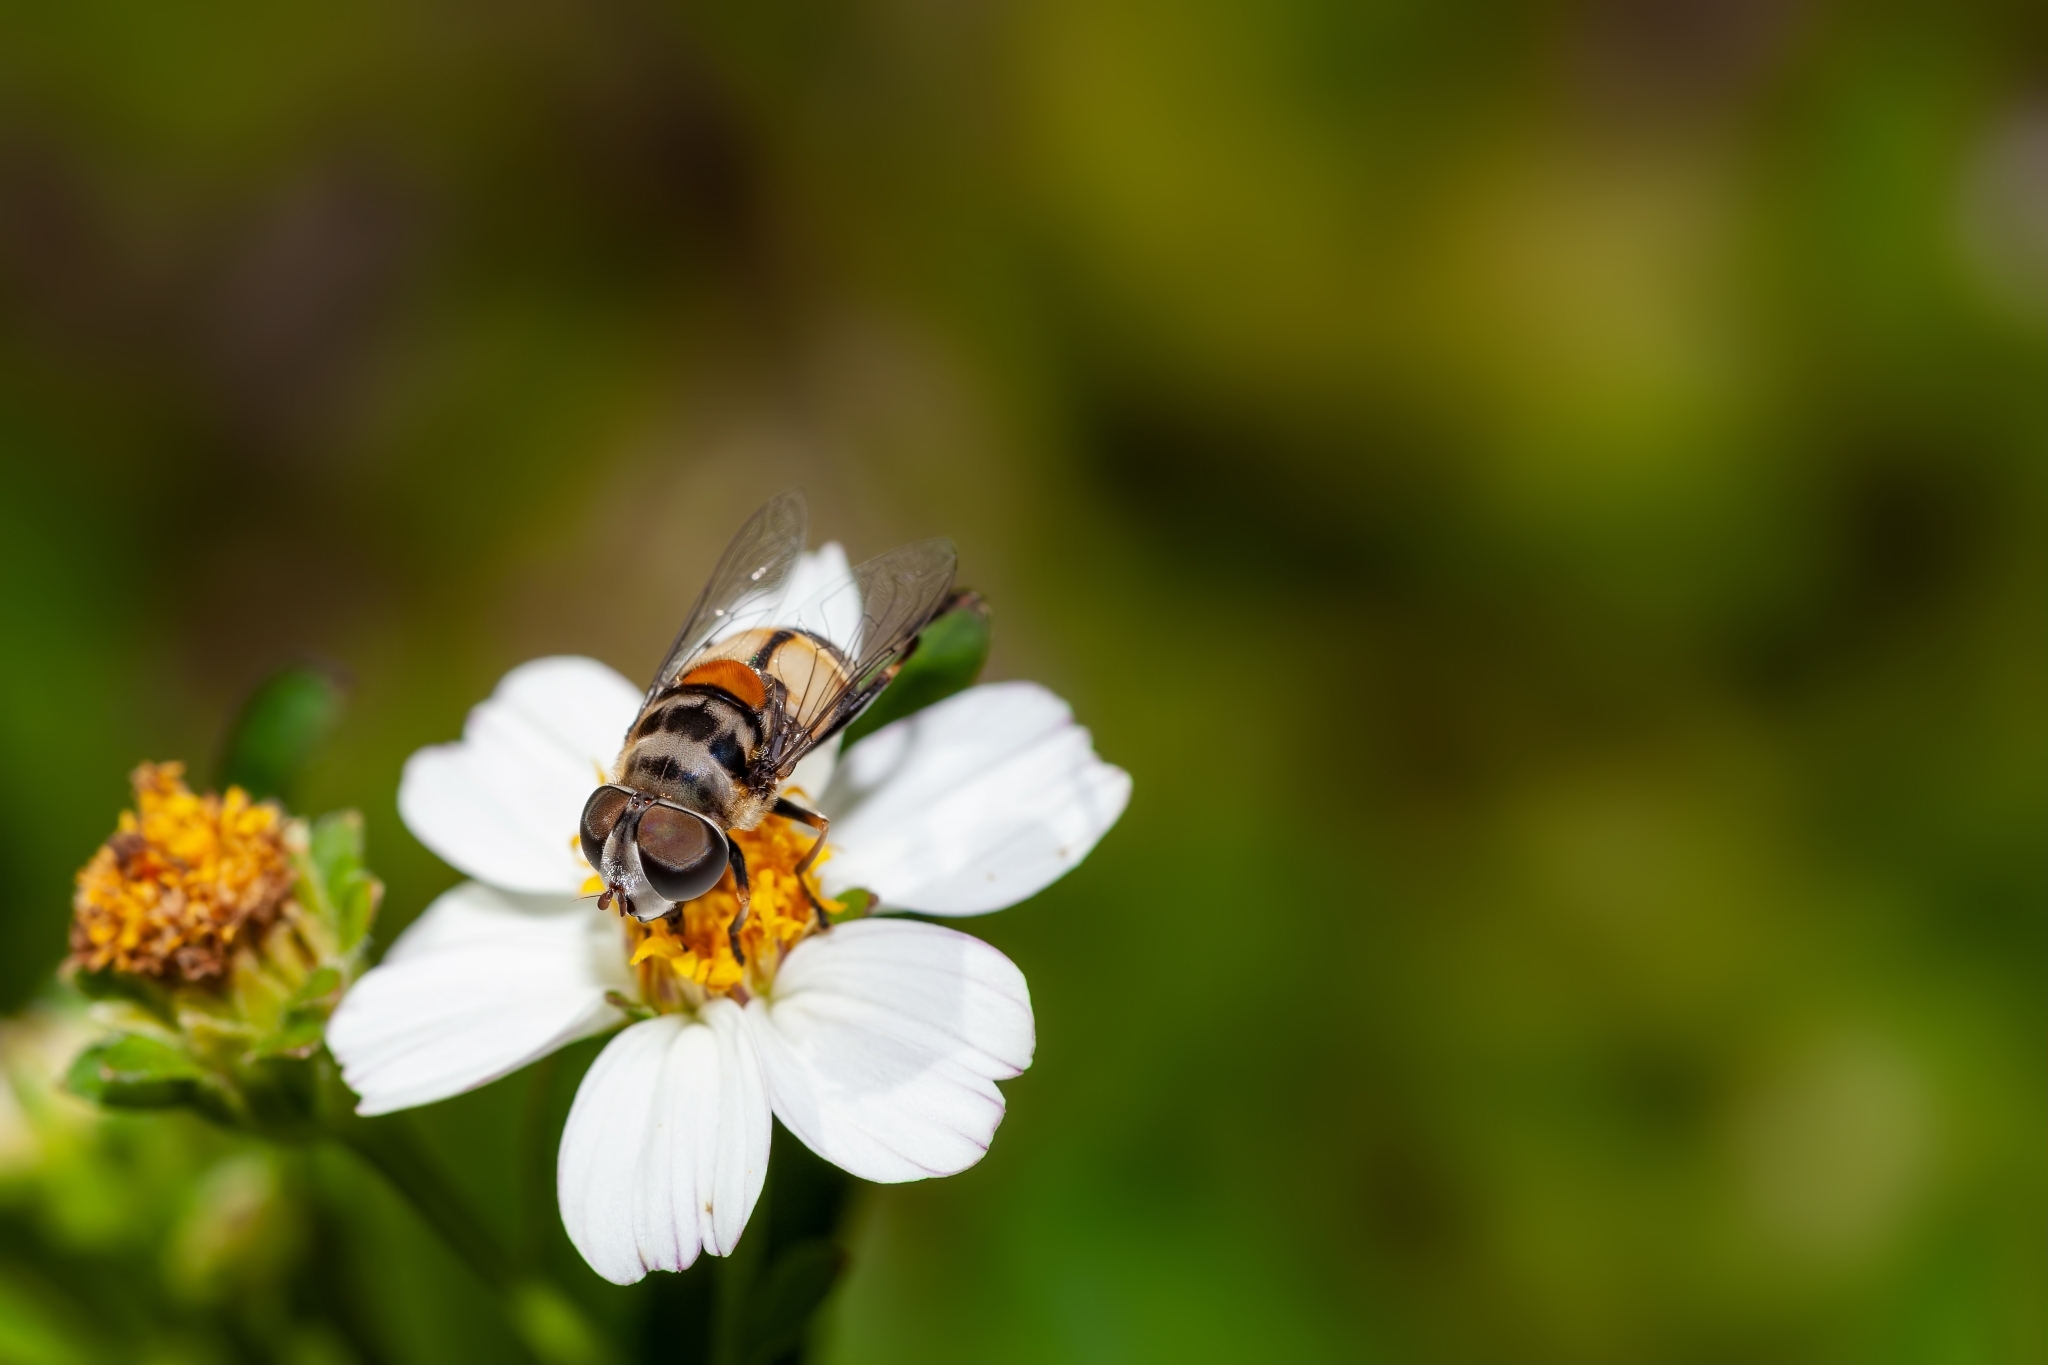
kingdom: Animalia
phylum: Arthropoda
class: Insecta
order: Diptera
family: Syrphidae
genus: Palpada
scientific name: Palpada albifrons
